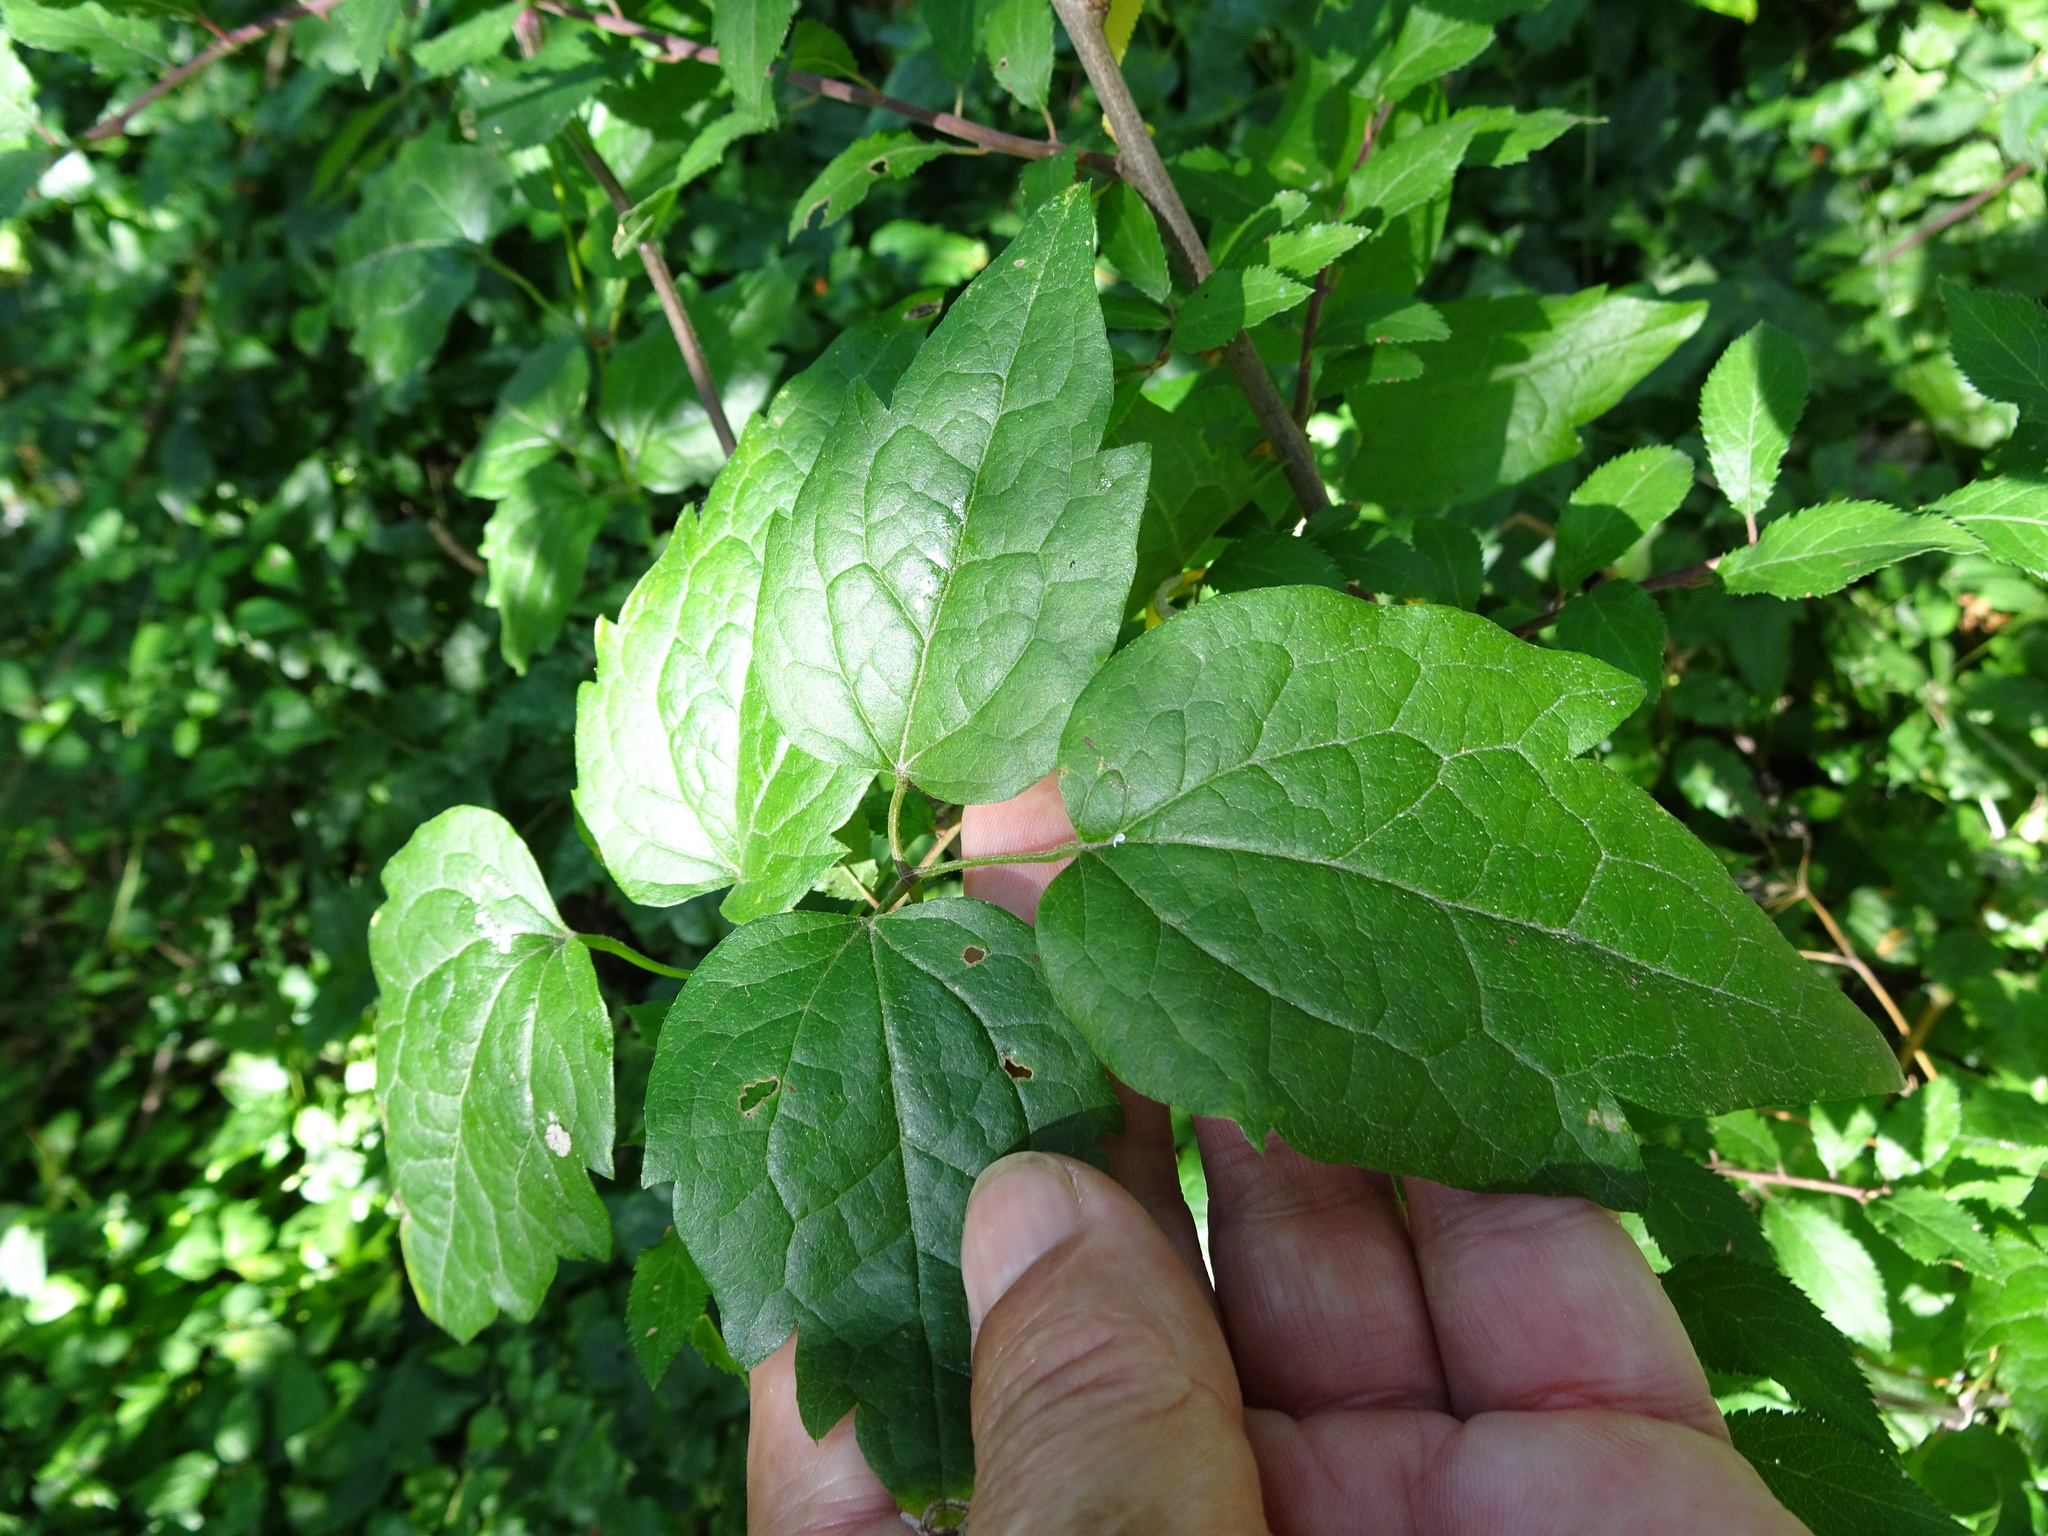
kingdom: Plantae
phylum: Tracheophyta
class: Magnoliopsida
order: Ranunculales
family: Ranunculaceae
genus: Clematis
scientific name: Clematis vitalba
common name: Evergreen clematis
